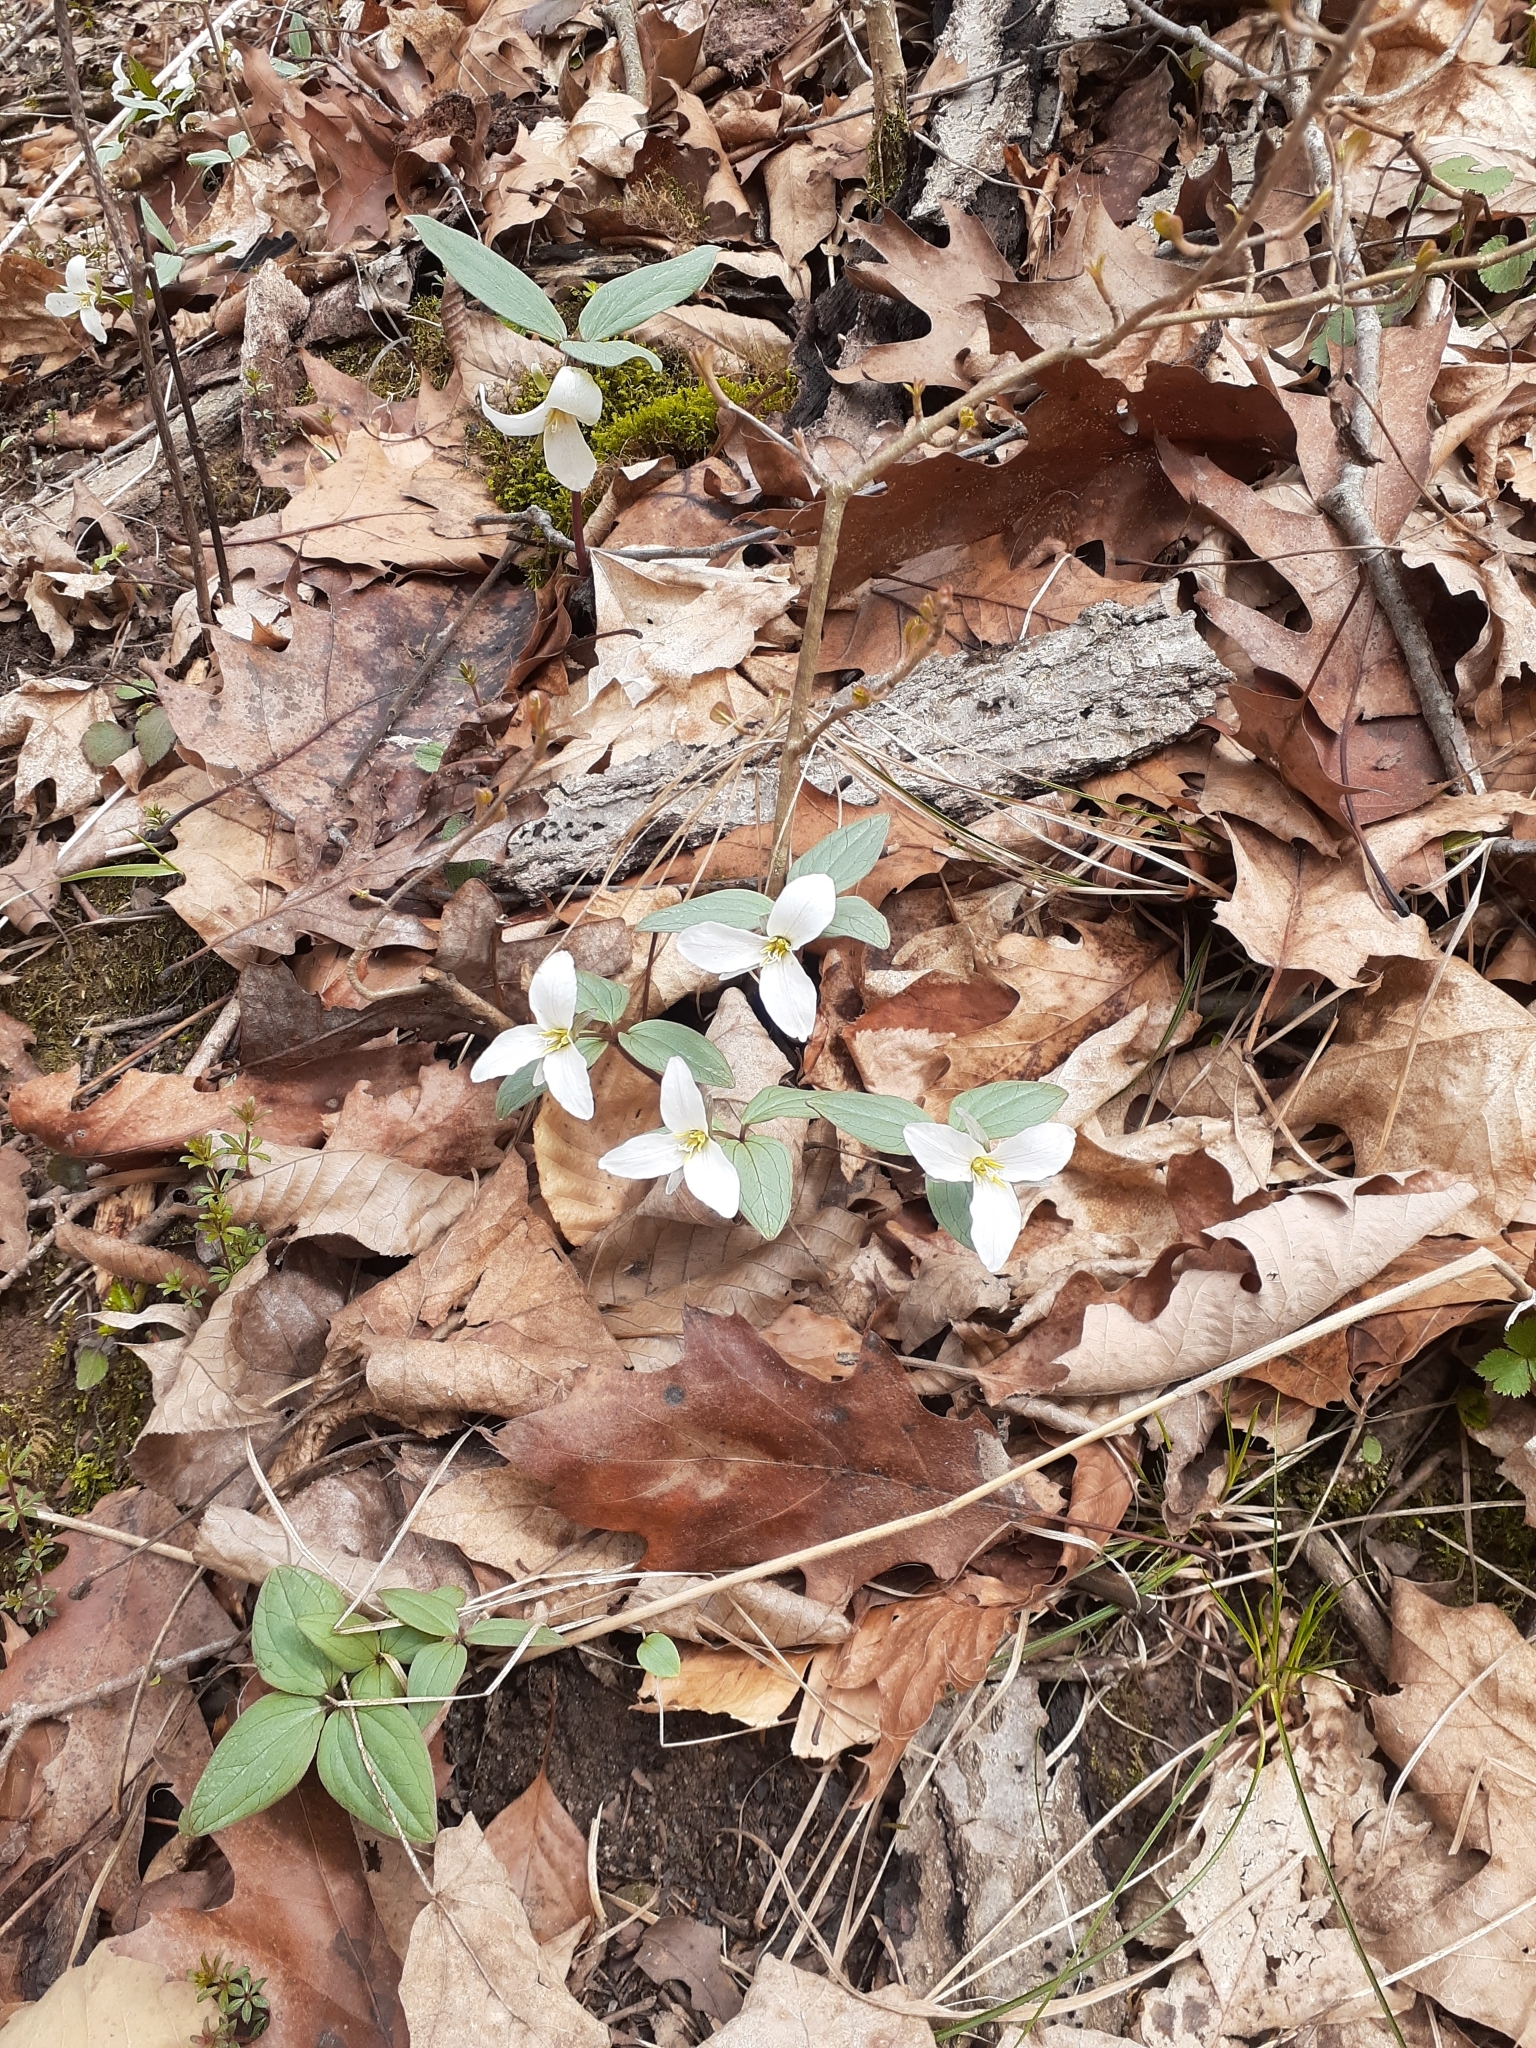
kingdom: Plantae
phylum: Tracheophyta
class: Liliopsida
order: Liliales
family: Melanthiaceae
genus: Trillium
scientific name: Trillium nivale
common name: Dwarf white trillium
